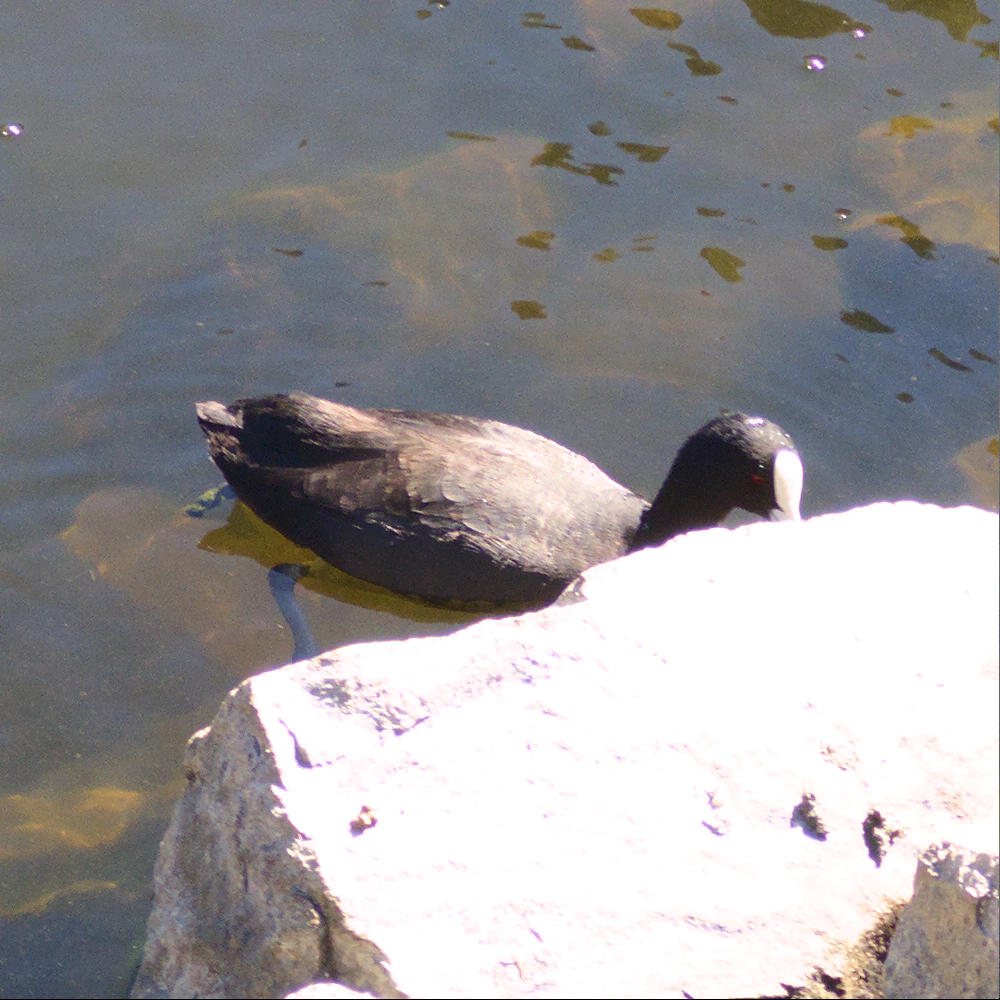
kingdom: Animalia
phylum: Chordata
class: Aves
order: Gruiformes
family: Rallidae
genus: Fulica
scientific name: Fulica atra
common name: Eurasian coot
